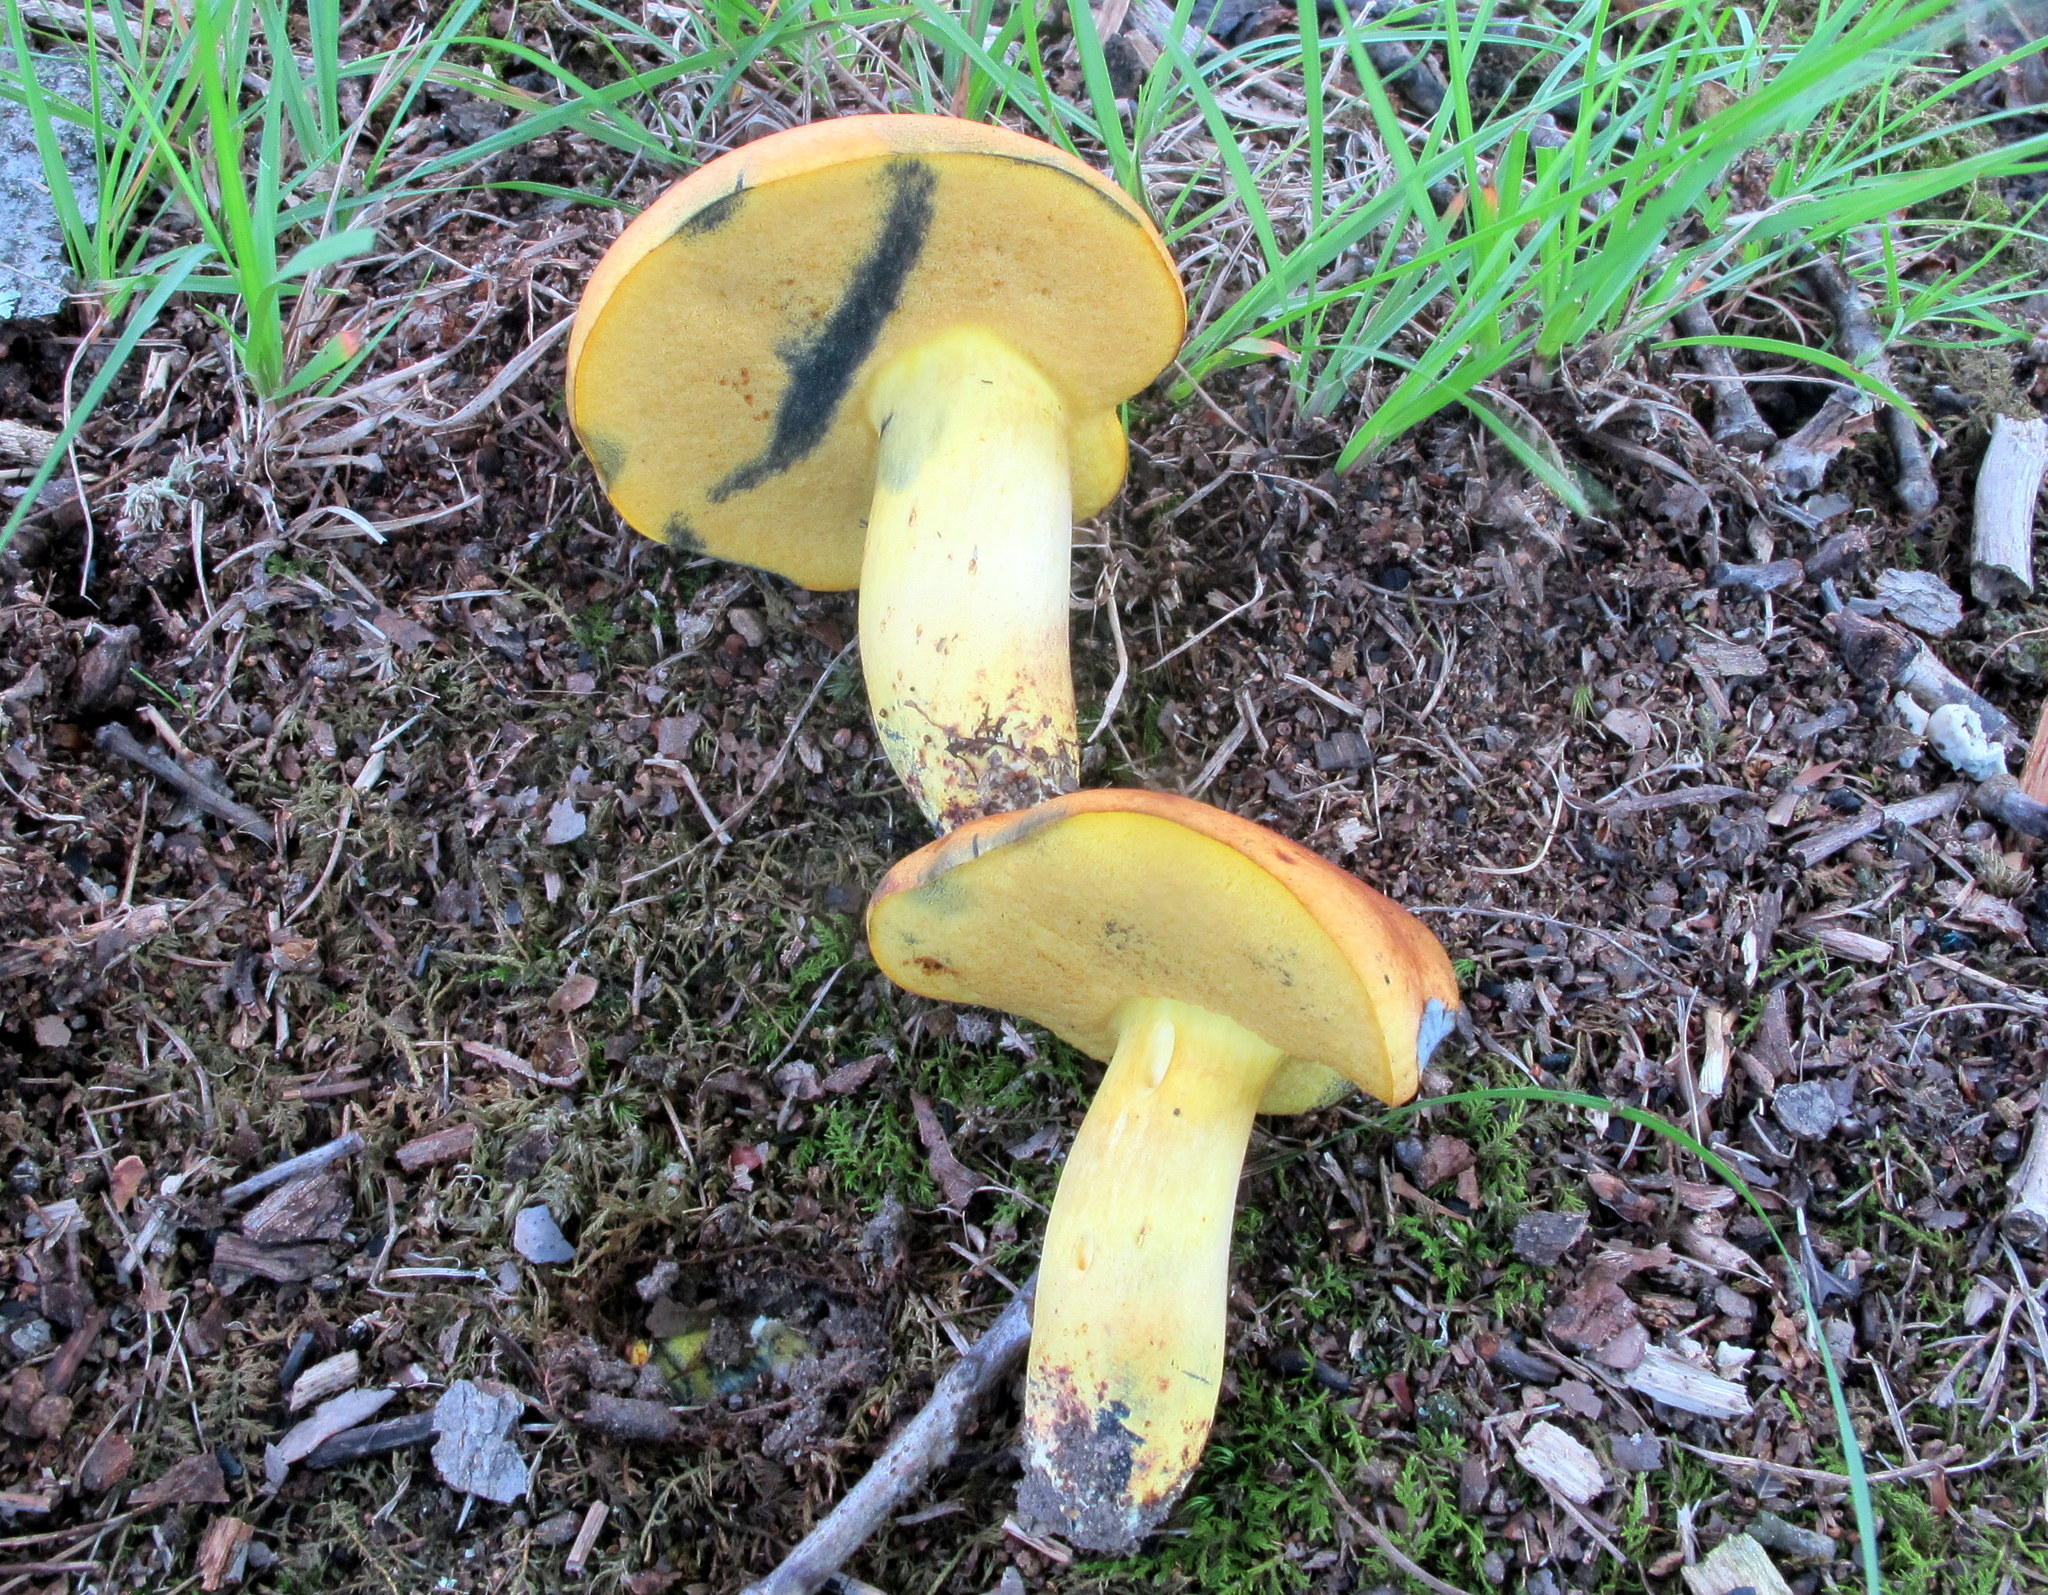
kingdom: Fungi
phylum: Basidiomycota
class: Agaricomycetes
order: Boletales
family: Boletaceae
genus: Lanmaoa
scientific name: Lanmaoa carminipes
